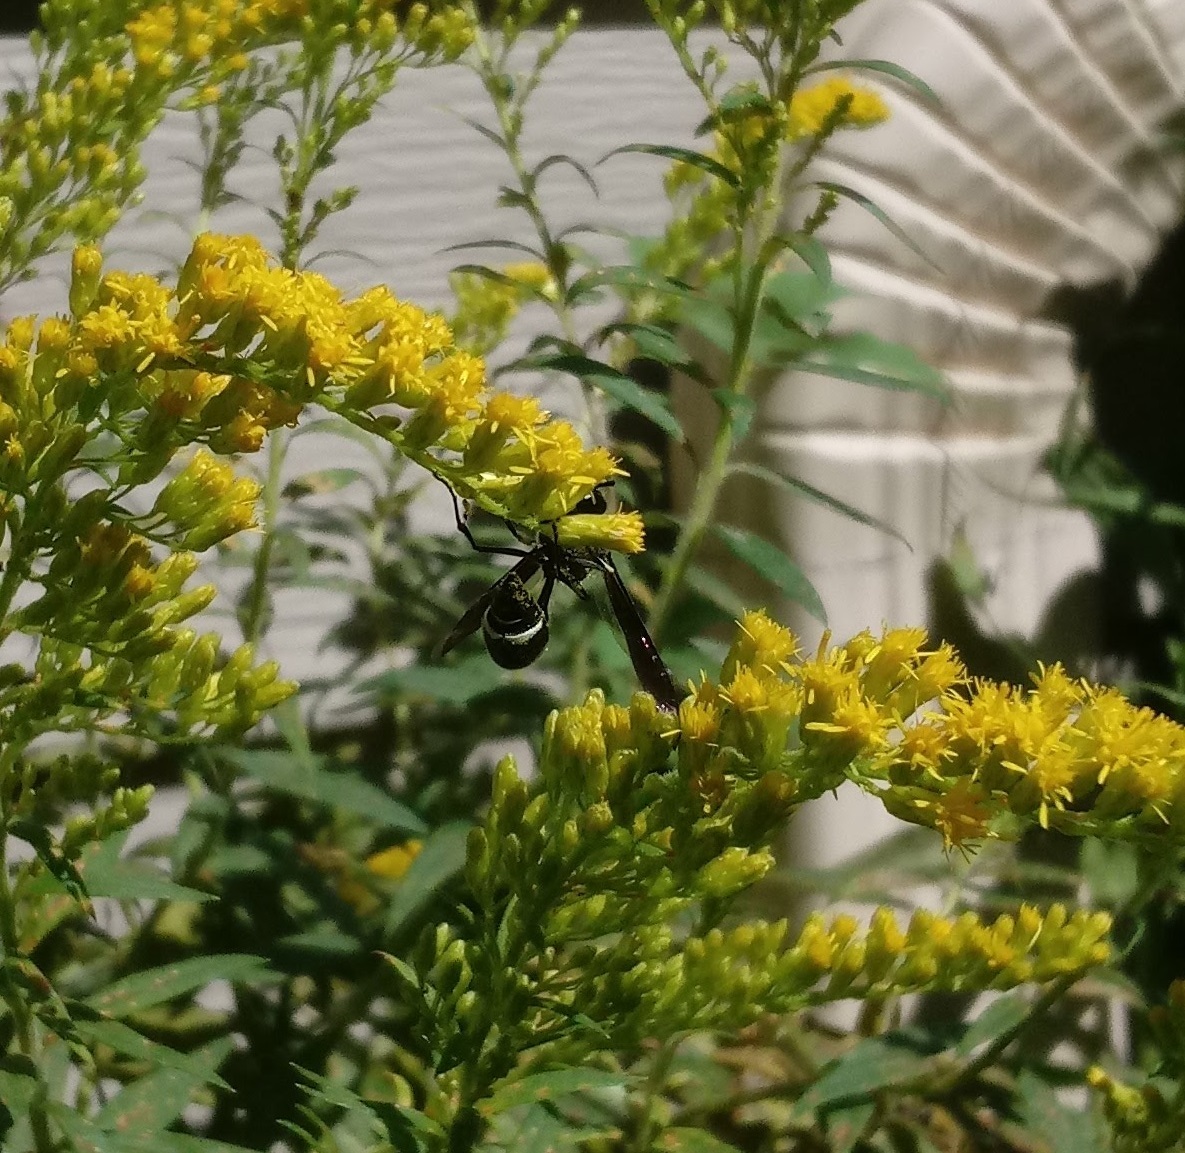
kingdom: Animalia
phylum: Arthropoda
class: Insecta
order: Hymenoptera
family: Vespidae
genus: Eumenes
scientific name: Eumenes fraternus
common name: Fraternal potter wasp
